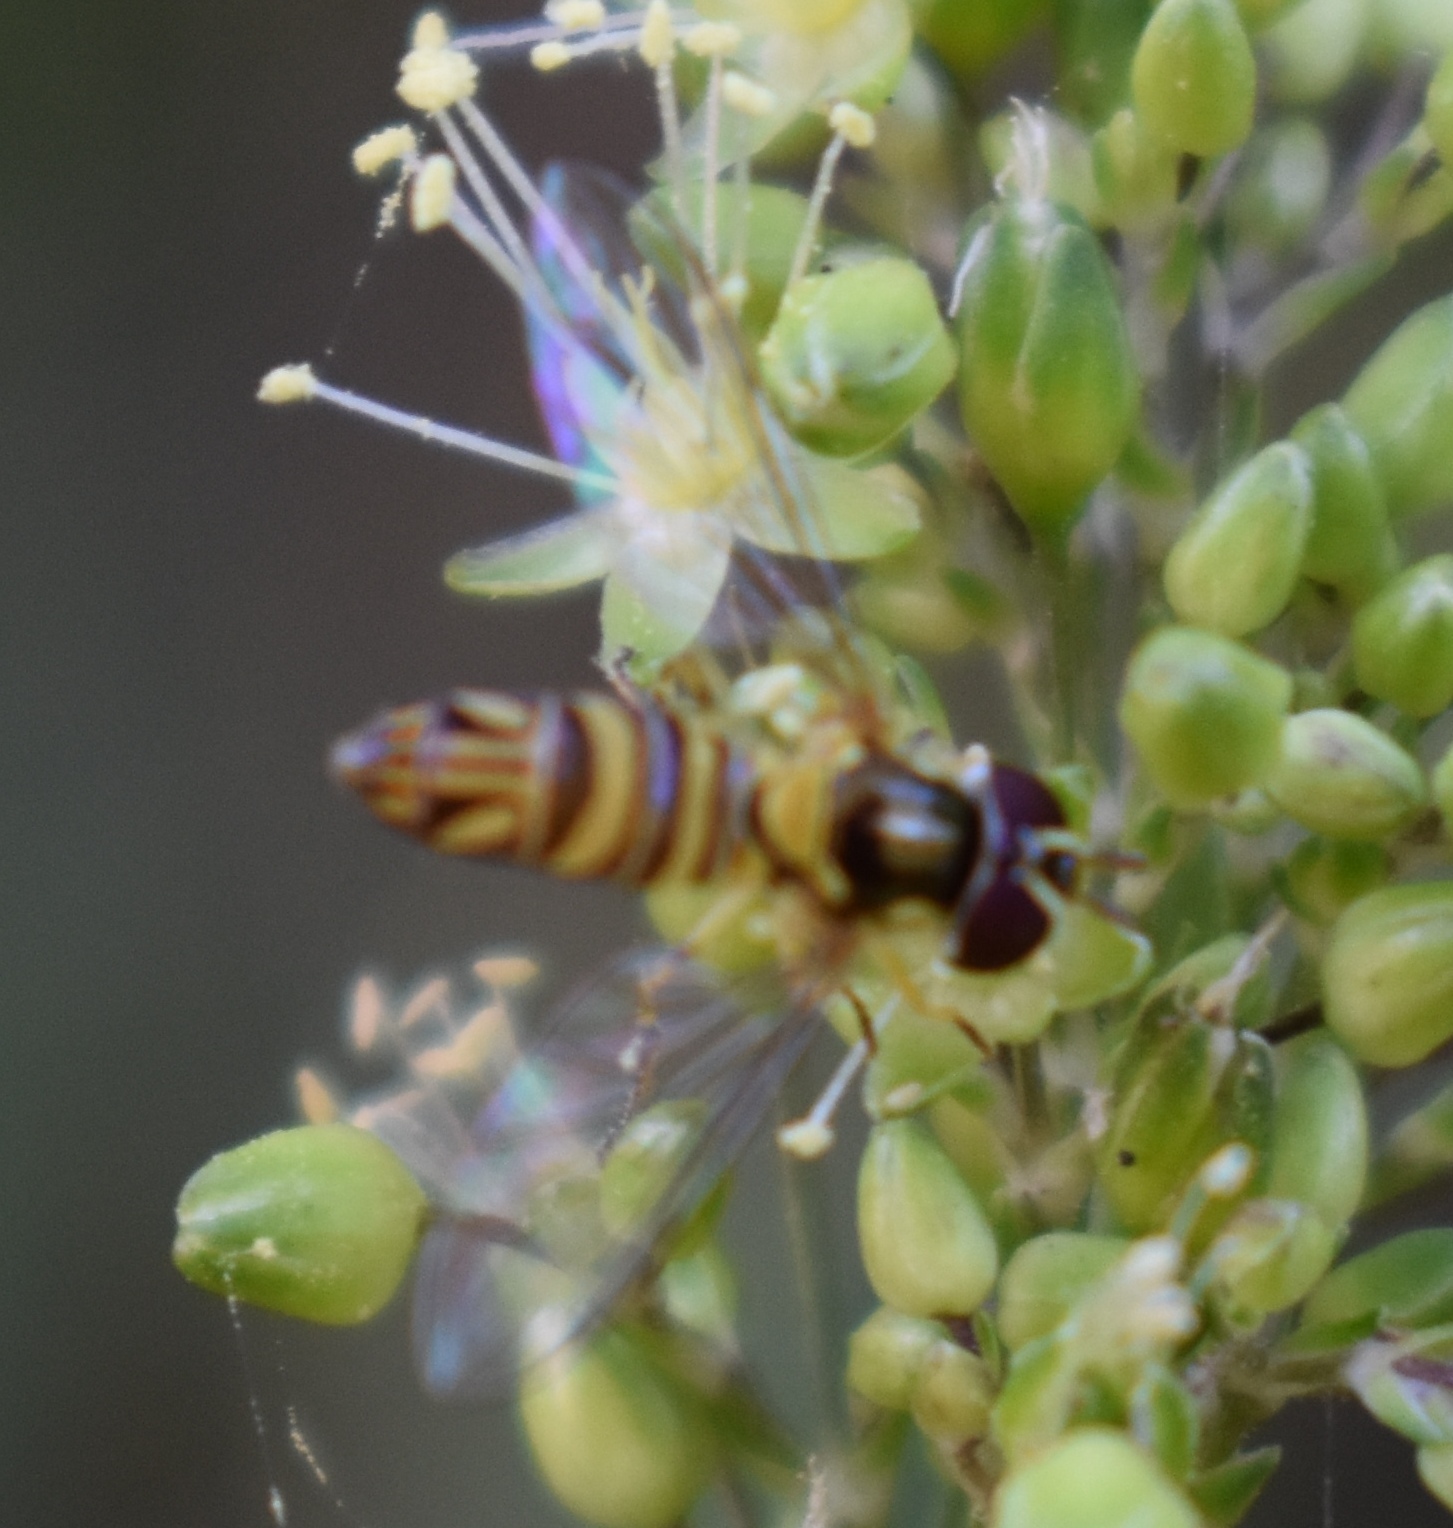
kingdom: Animalia
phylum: Arthropoda
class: Insecta
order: Diptera
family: Syrphidae
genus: Allograpta
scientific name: Allograpta obliqua
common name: Common oblique syrphid
